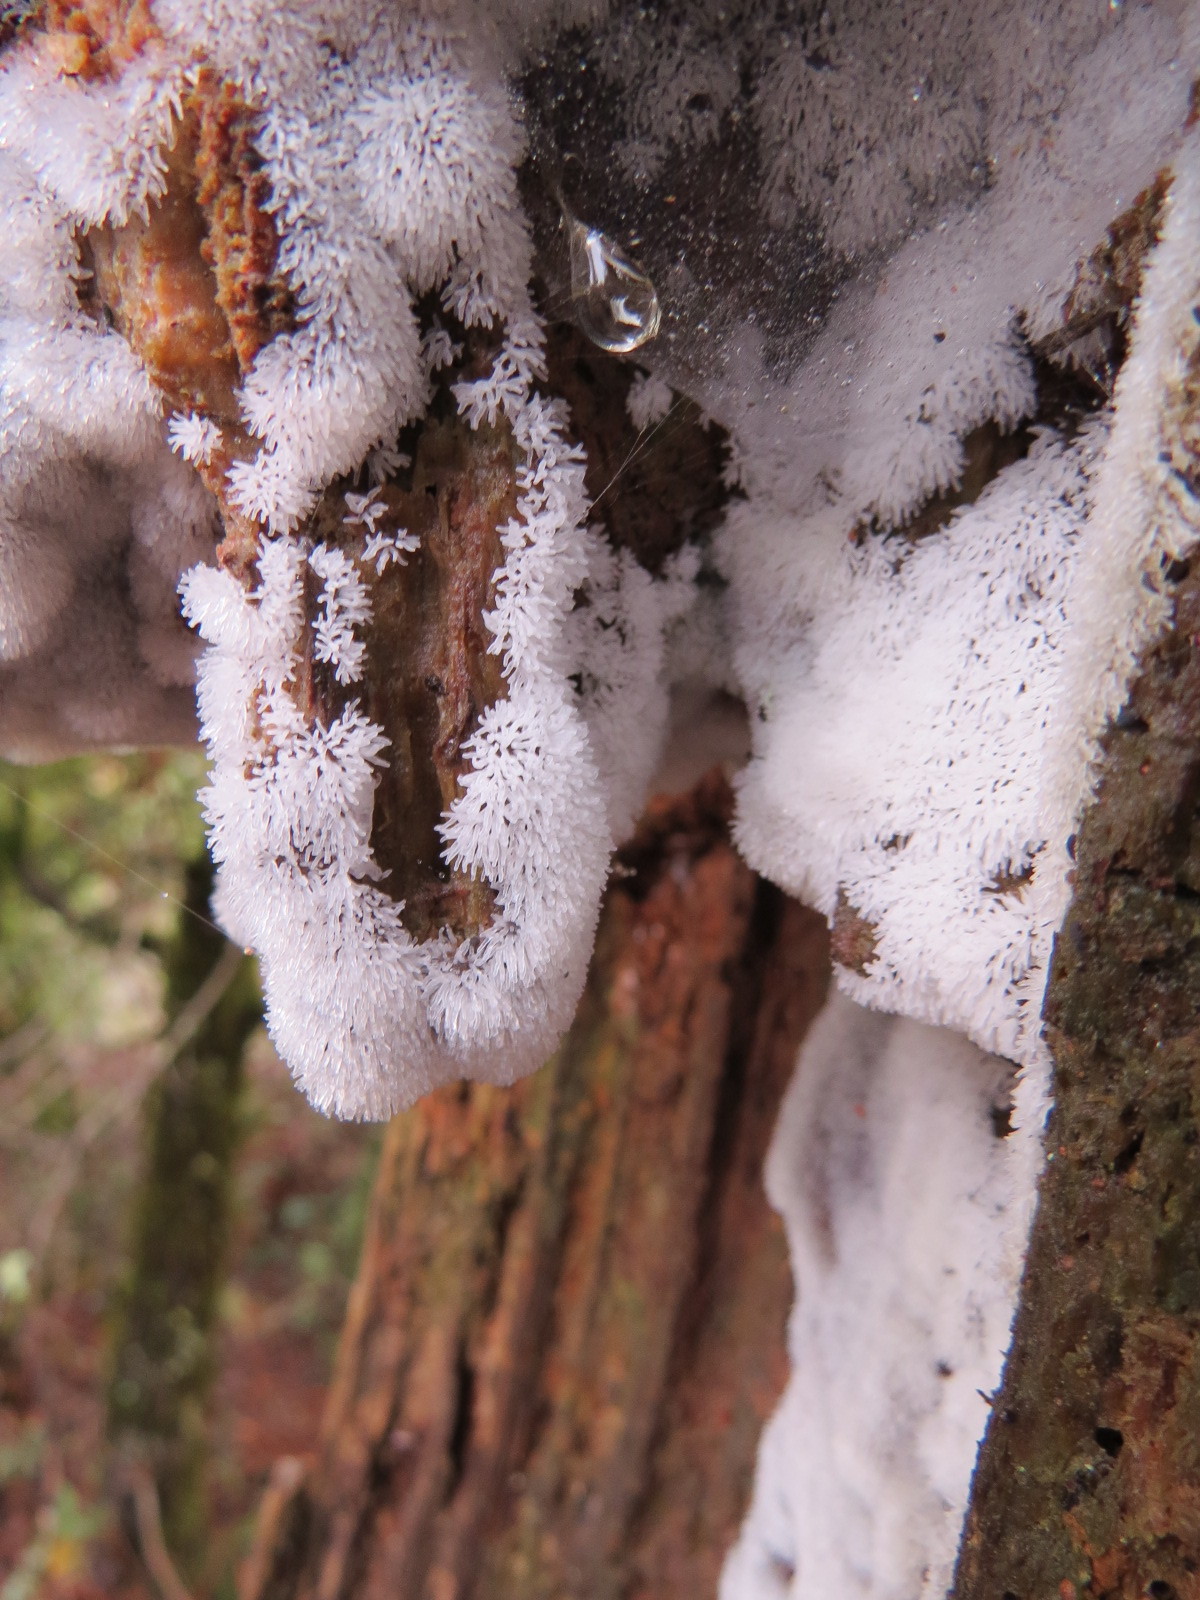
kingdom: Protozoa
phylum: Mycetozoa
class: Protosteliomycetes
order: Ceratiomyxales
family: Ceratiomyxaceae
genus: Ceratiomyxa
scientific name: Ceratiomyxa fruticulosa
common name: Honeycomb coral slime mold
